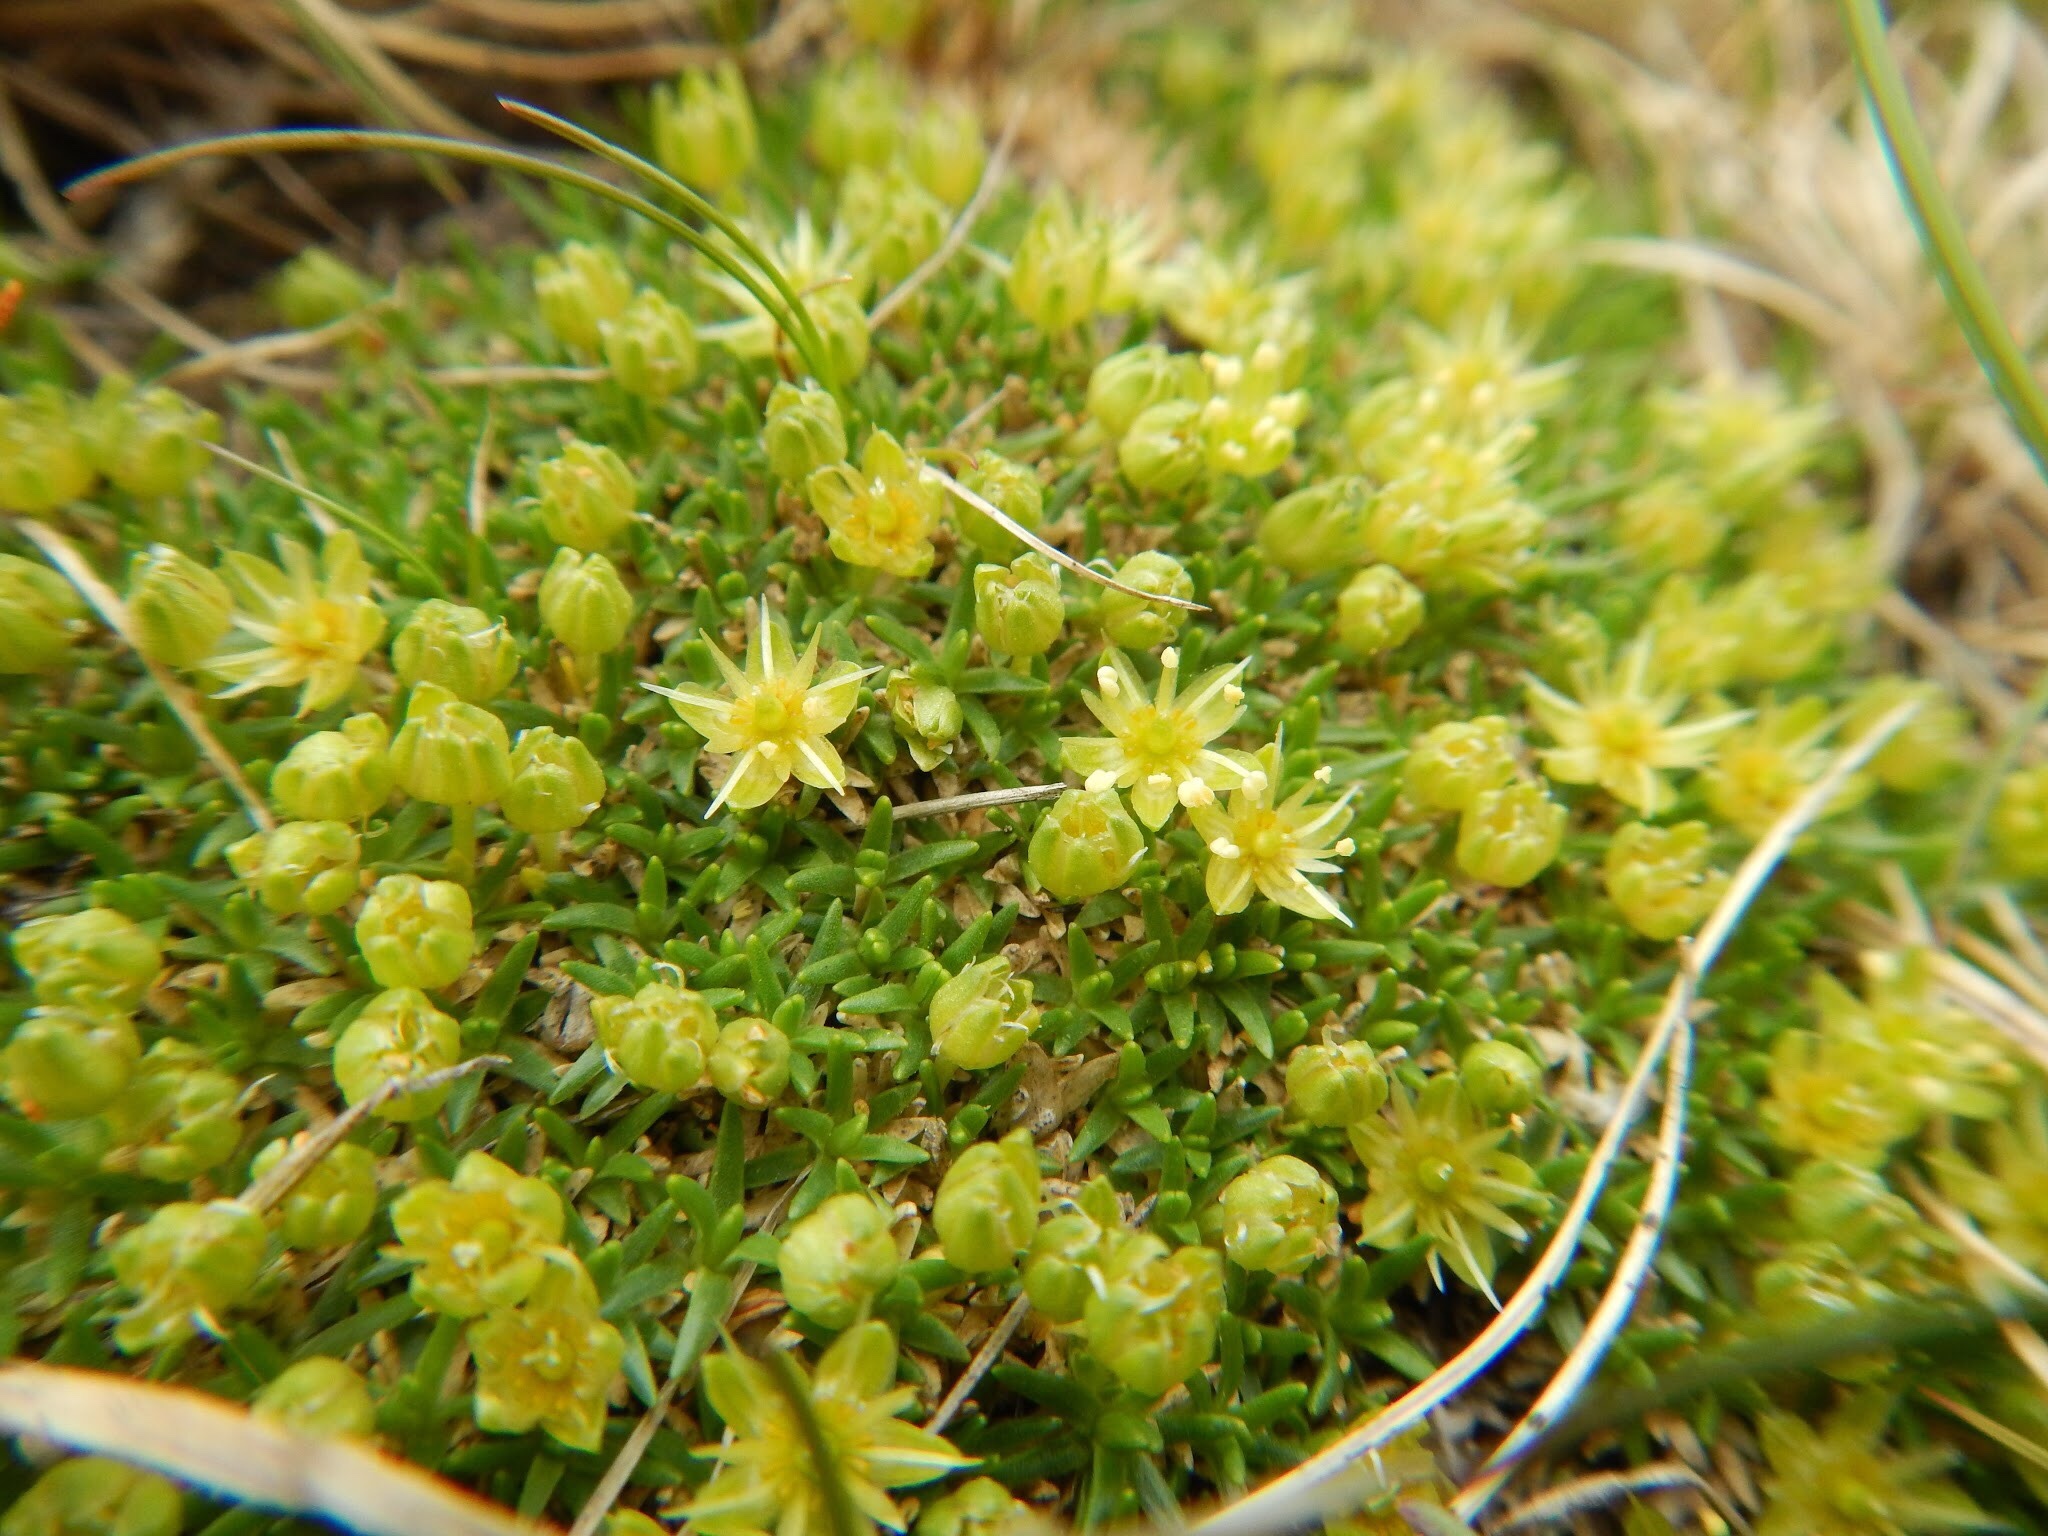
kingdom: Plantae
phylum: Tracheophyta
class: Magnoliopsida
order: Caryophyllales
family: Caryophyllaceae
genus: Cherleria
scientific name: Cherleria sedoides
